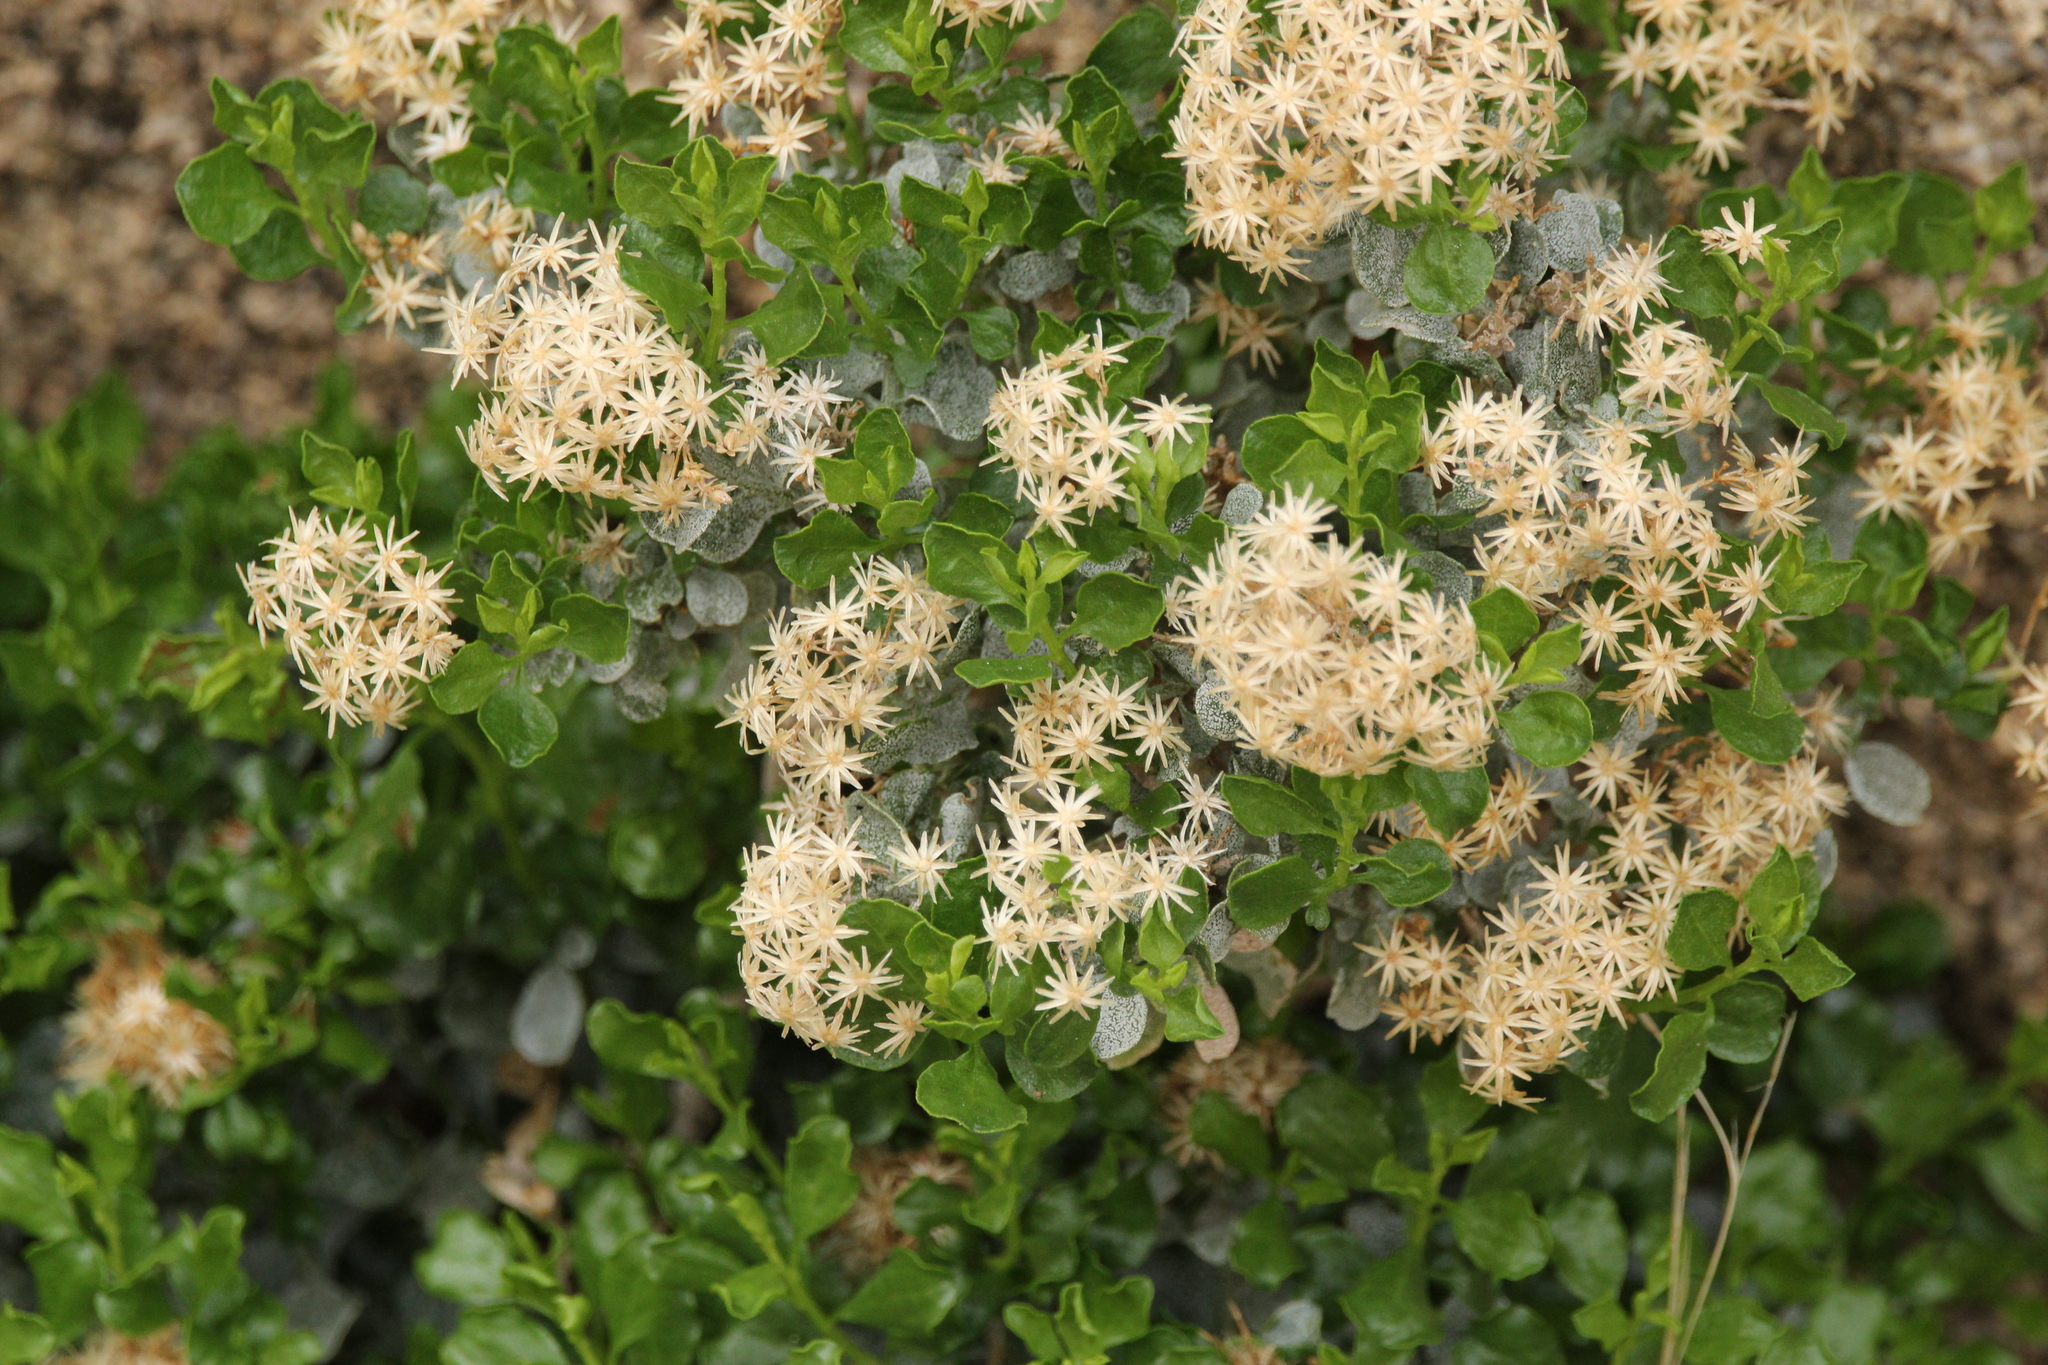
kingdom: Plantae
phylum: Tracheophyta
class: Magnoliopsida
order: Asterales
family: Asteraceae
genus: Ericameria
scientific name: Ericameria cuneata
